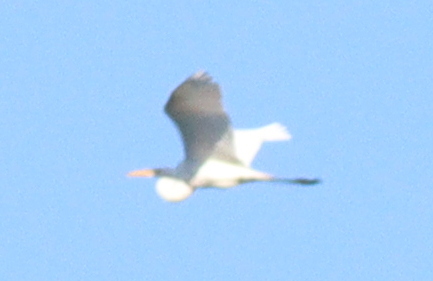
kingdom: Animalia
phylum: Chordata
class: Aves
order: Pelecaniformes
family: Ardeidae
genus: Ardea
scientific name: Ardea alba
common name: Great egret
